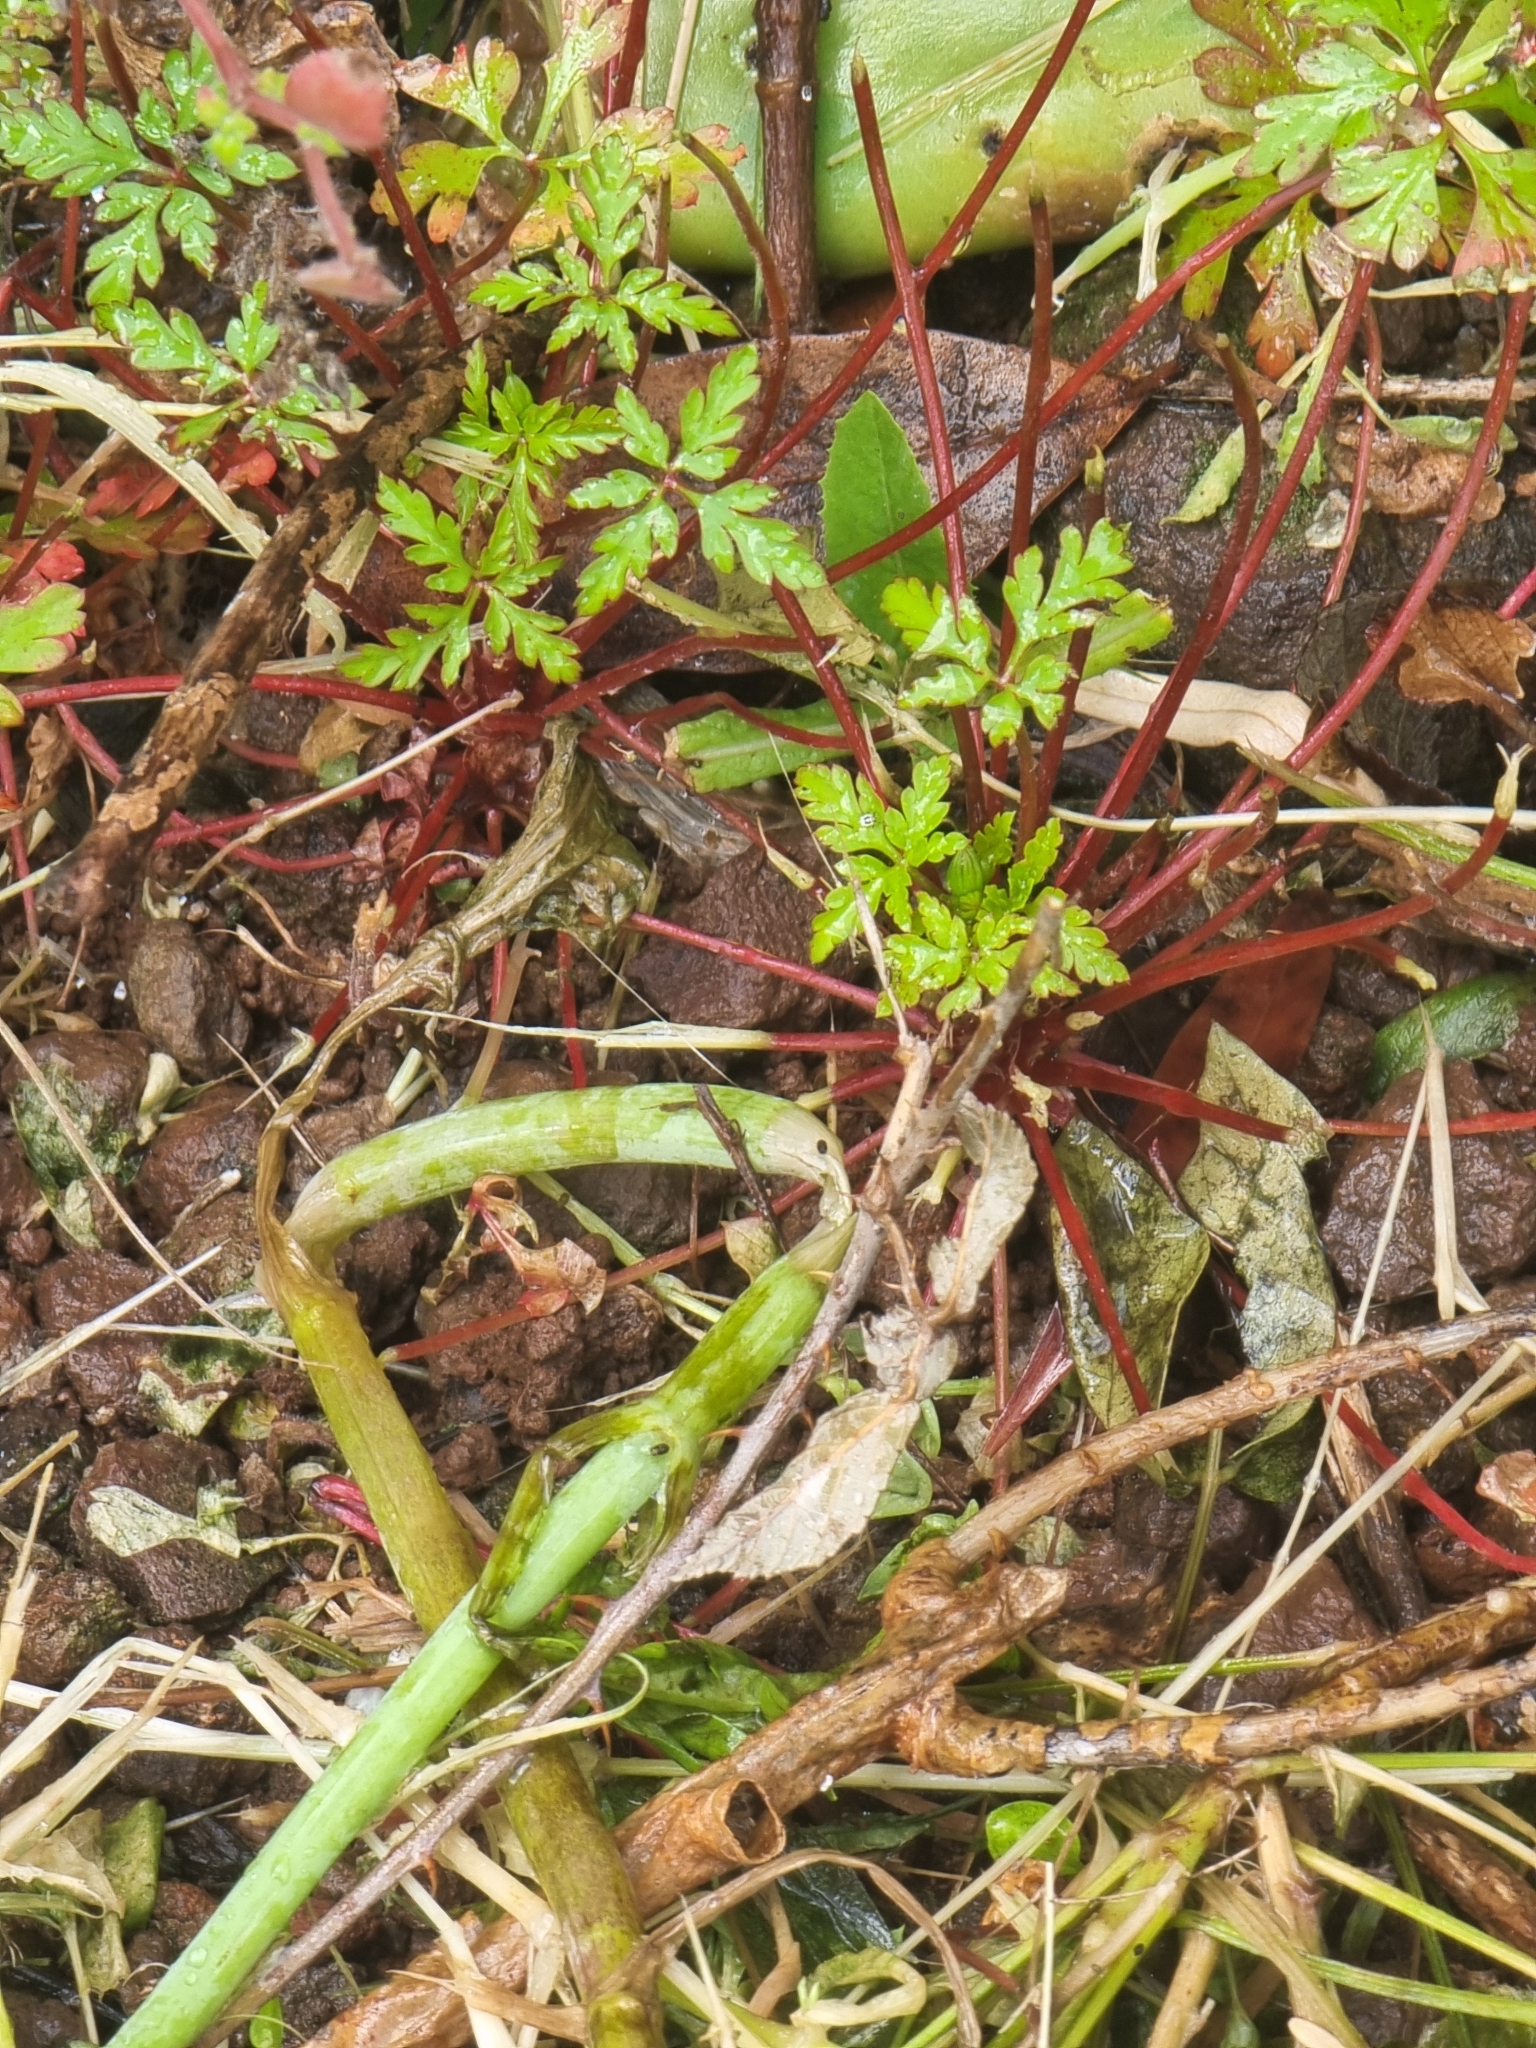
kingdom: Plantae
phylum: Tracheophyta
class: Magnoliopsida
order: Geraniales
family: Geraniaceae
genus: Geranium
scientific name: Geranium purpureum
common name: Little-robin
